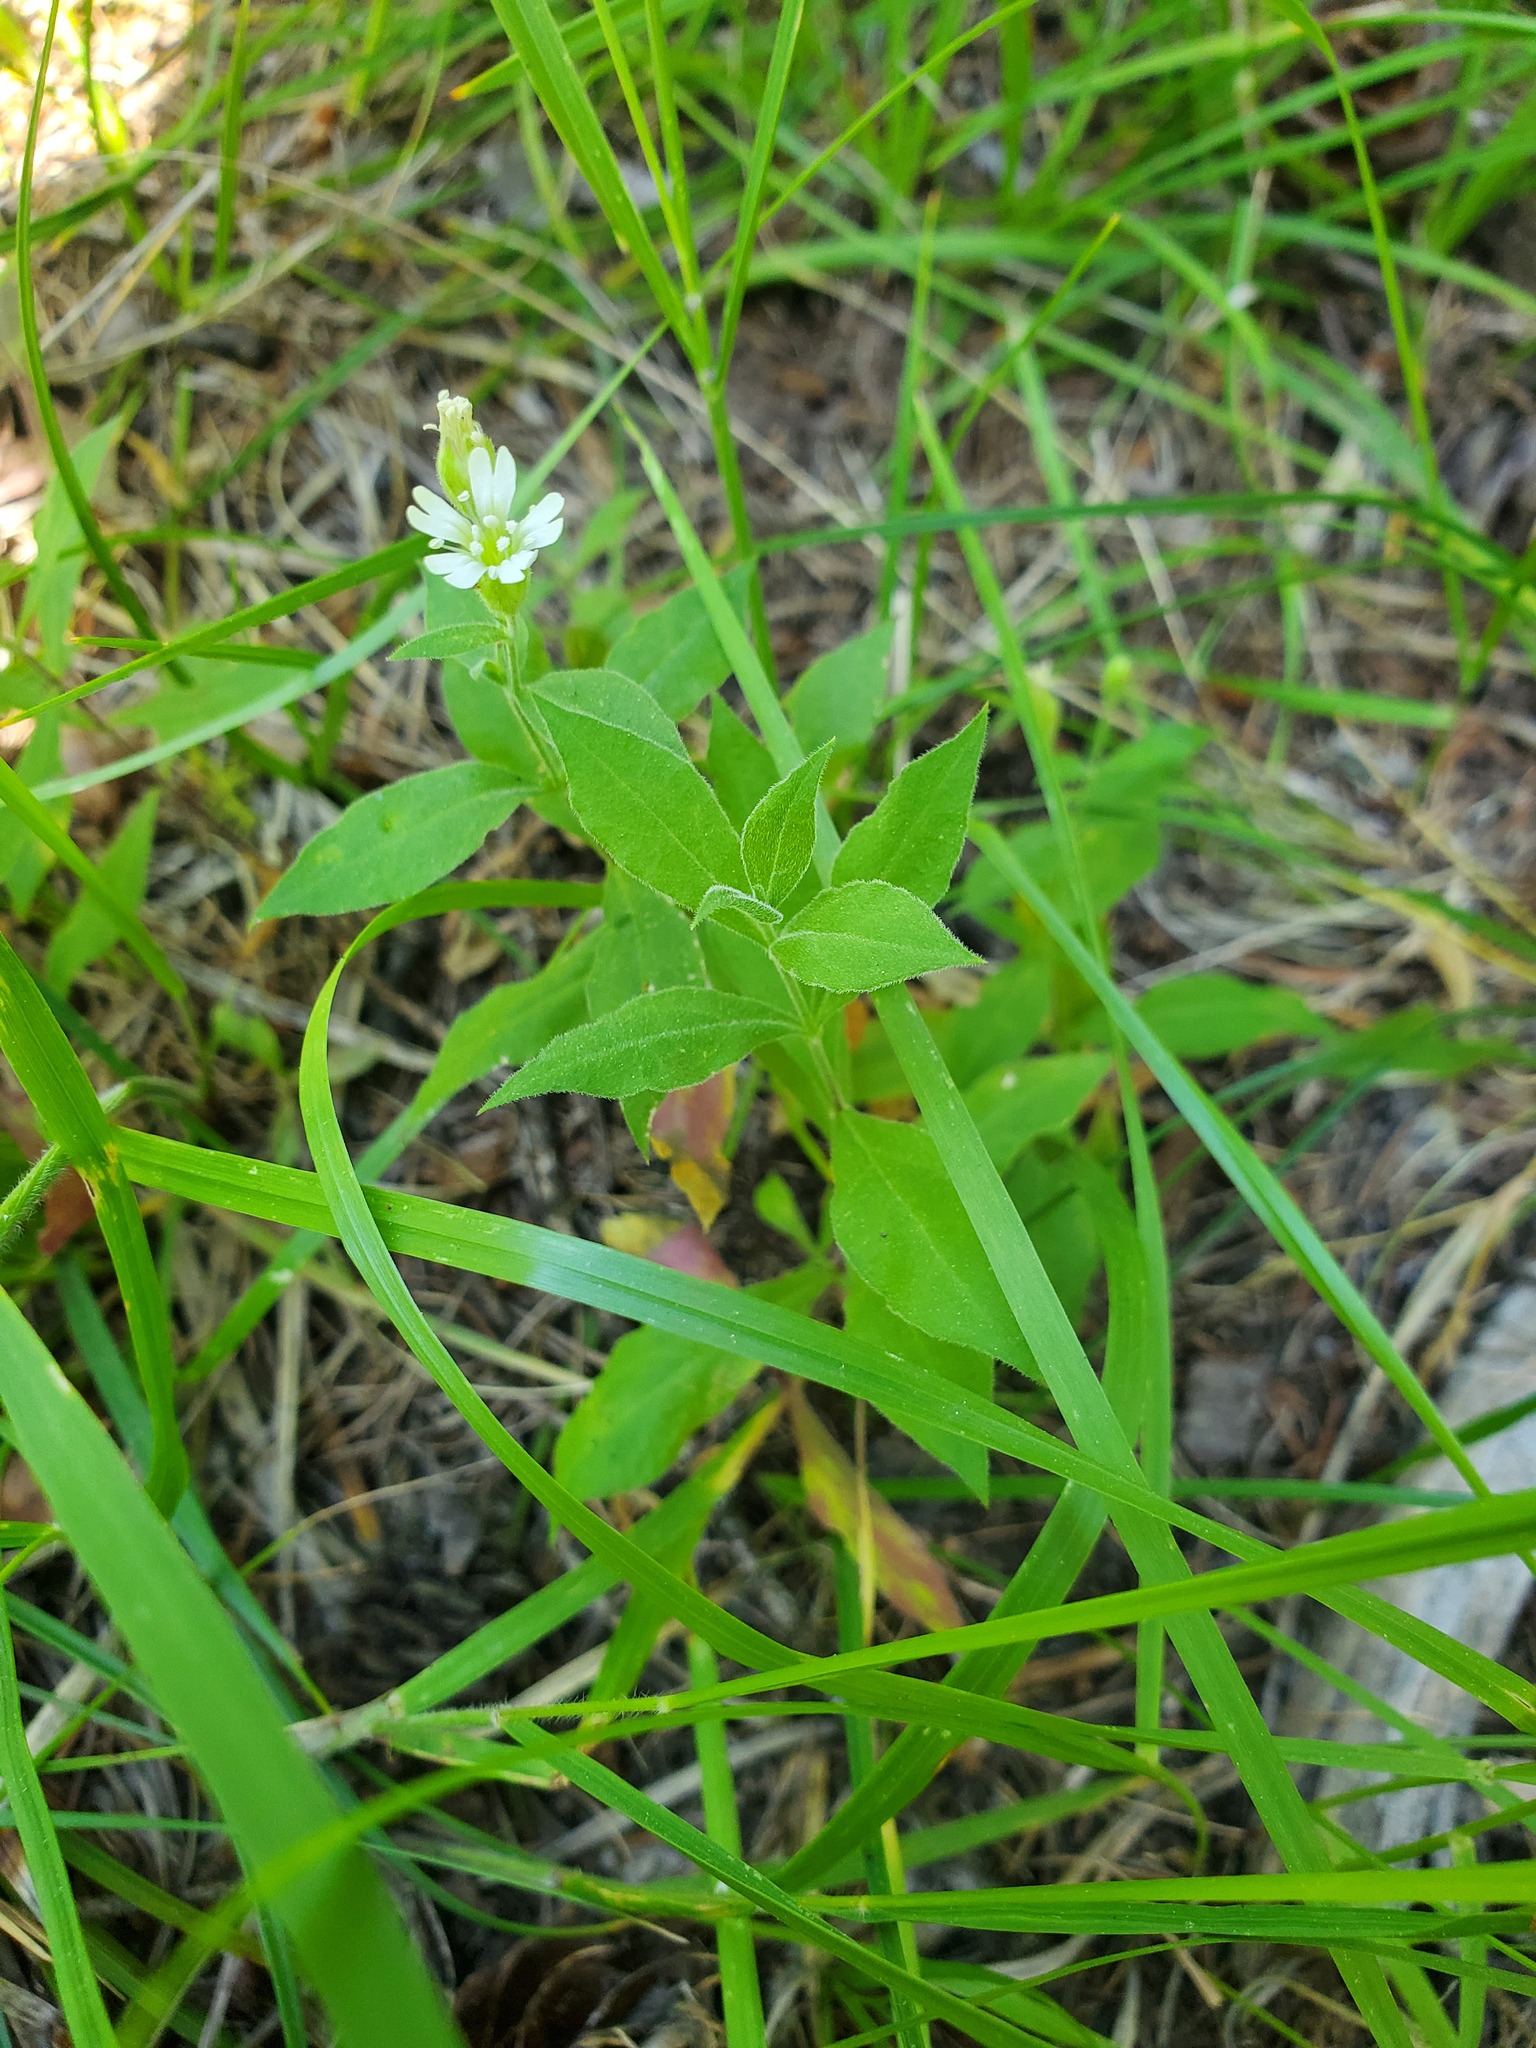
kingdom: Plantae
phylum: Tracheophyta
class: Magnoliopsida
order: Caryophyllales
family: Caryophyllaceae
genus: Silene
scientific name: Silene menziesii
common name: Menzies's catchfly
